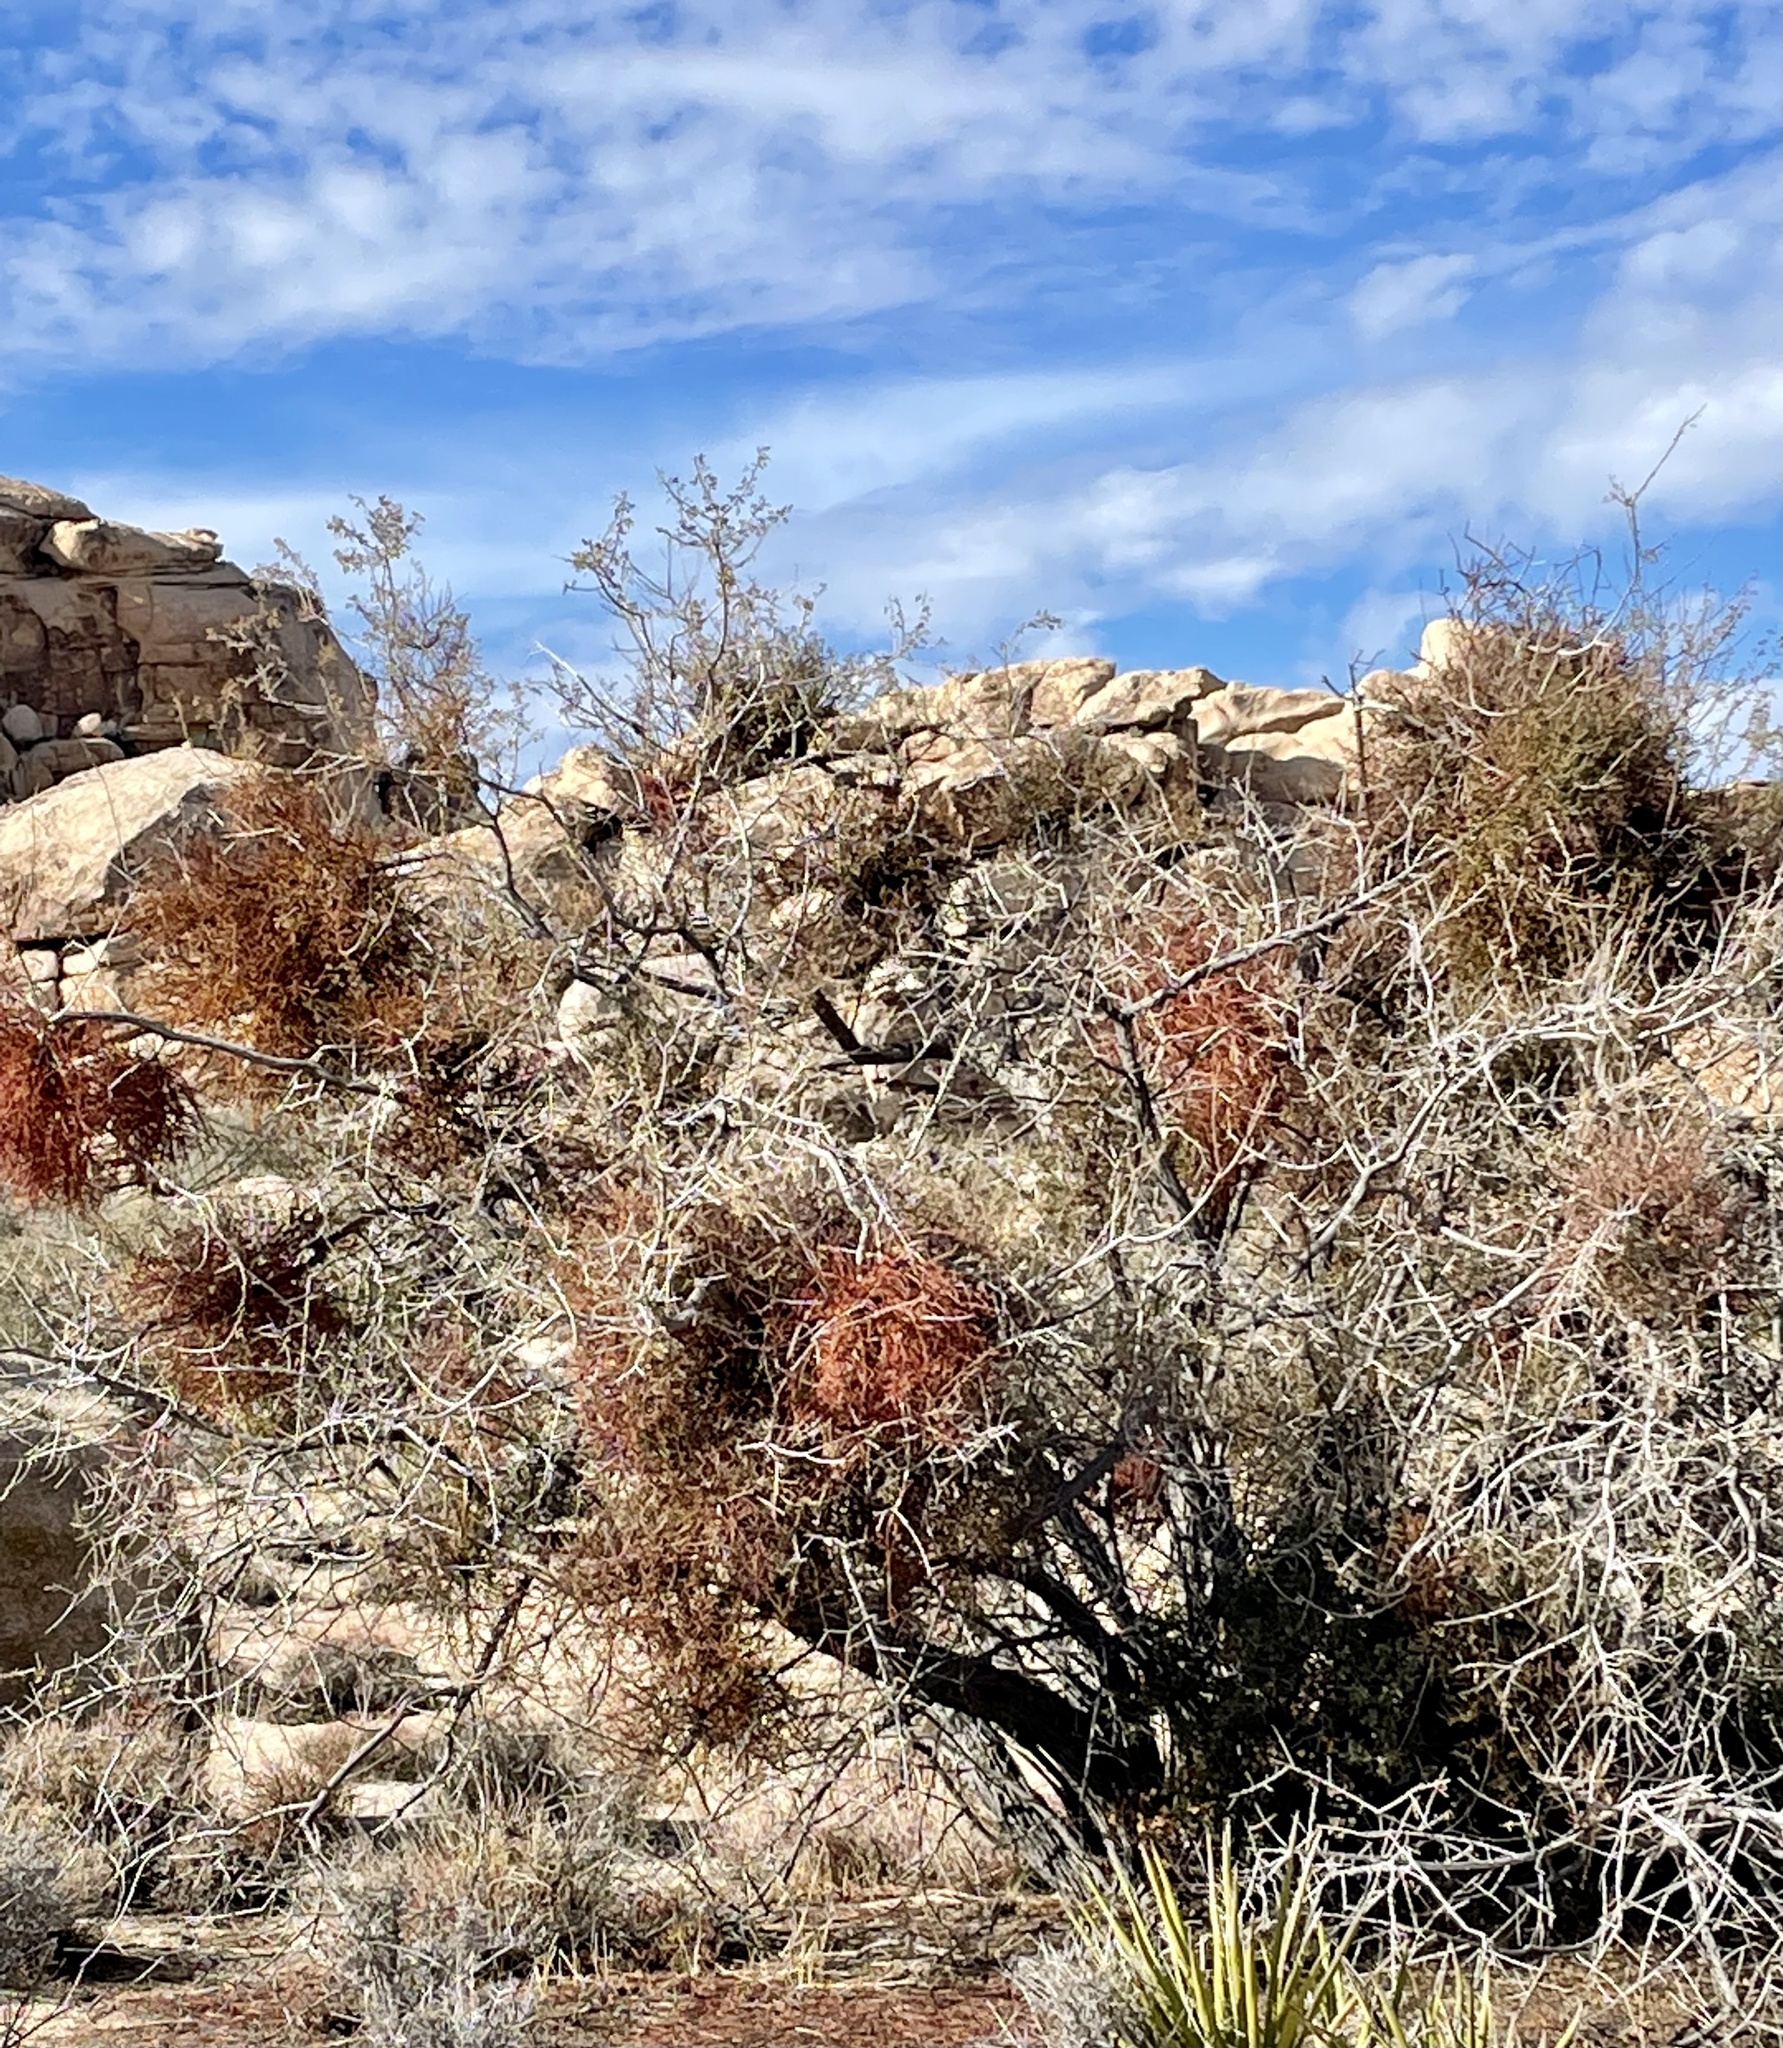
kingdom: Plantae
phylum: Tracheophyta
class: Magnoliopsida
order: Santalales
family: Viscaceae
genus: Phoradendron
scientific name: Phoradendron californicum
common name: Acacia mistletoe
